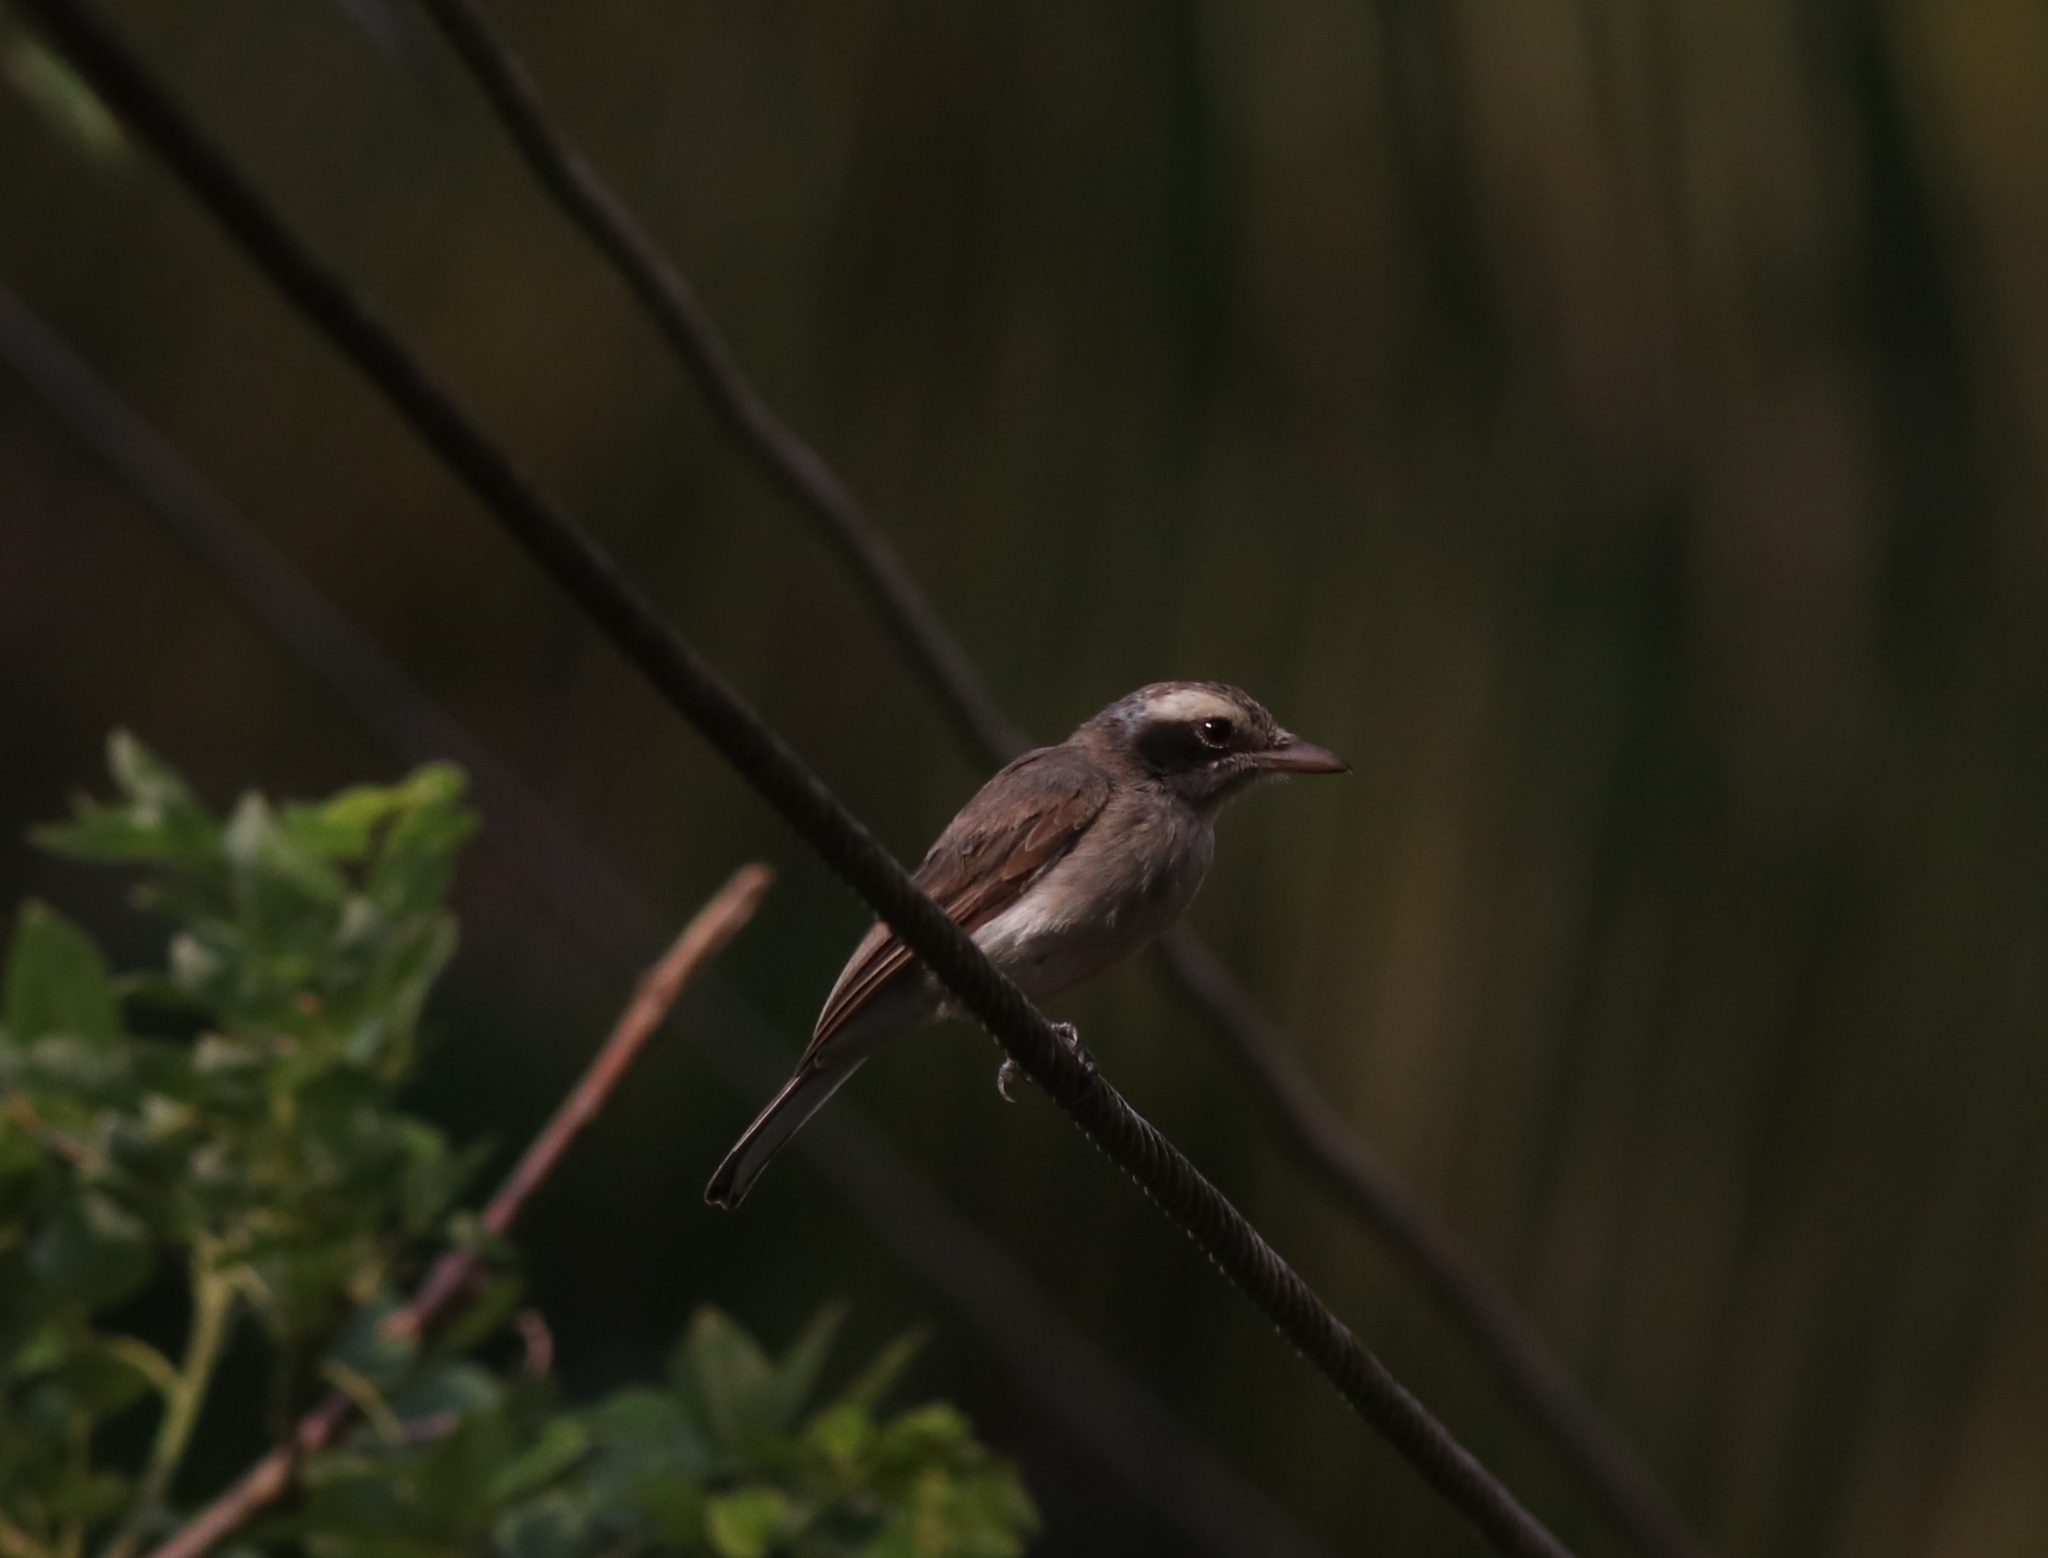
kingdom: Animalia
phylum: Chordata
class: Aves
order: Passeriformes
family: Tephrodornithidae
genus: Tephrodornis
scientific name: Tephrodornis pondicerianus
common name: Common woodshrike
